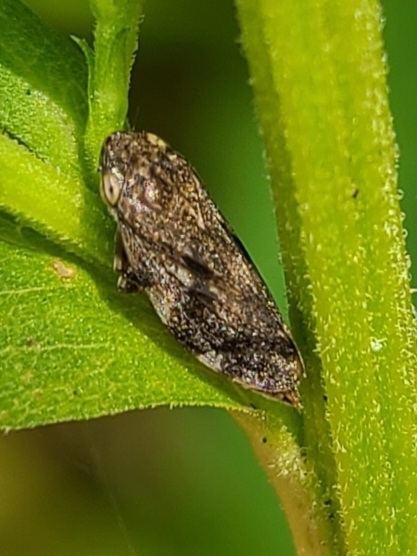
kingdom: Animalia
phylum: Arthropoda
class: Insecta
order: Hemiptera
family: Aphrophoridae
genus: Philaenus
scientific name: Philaenus spumarius
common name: Meadow spittlebug
